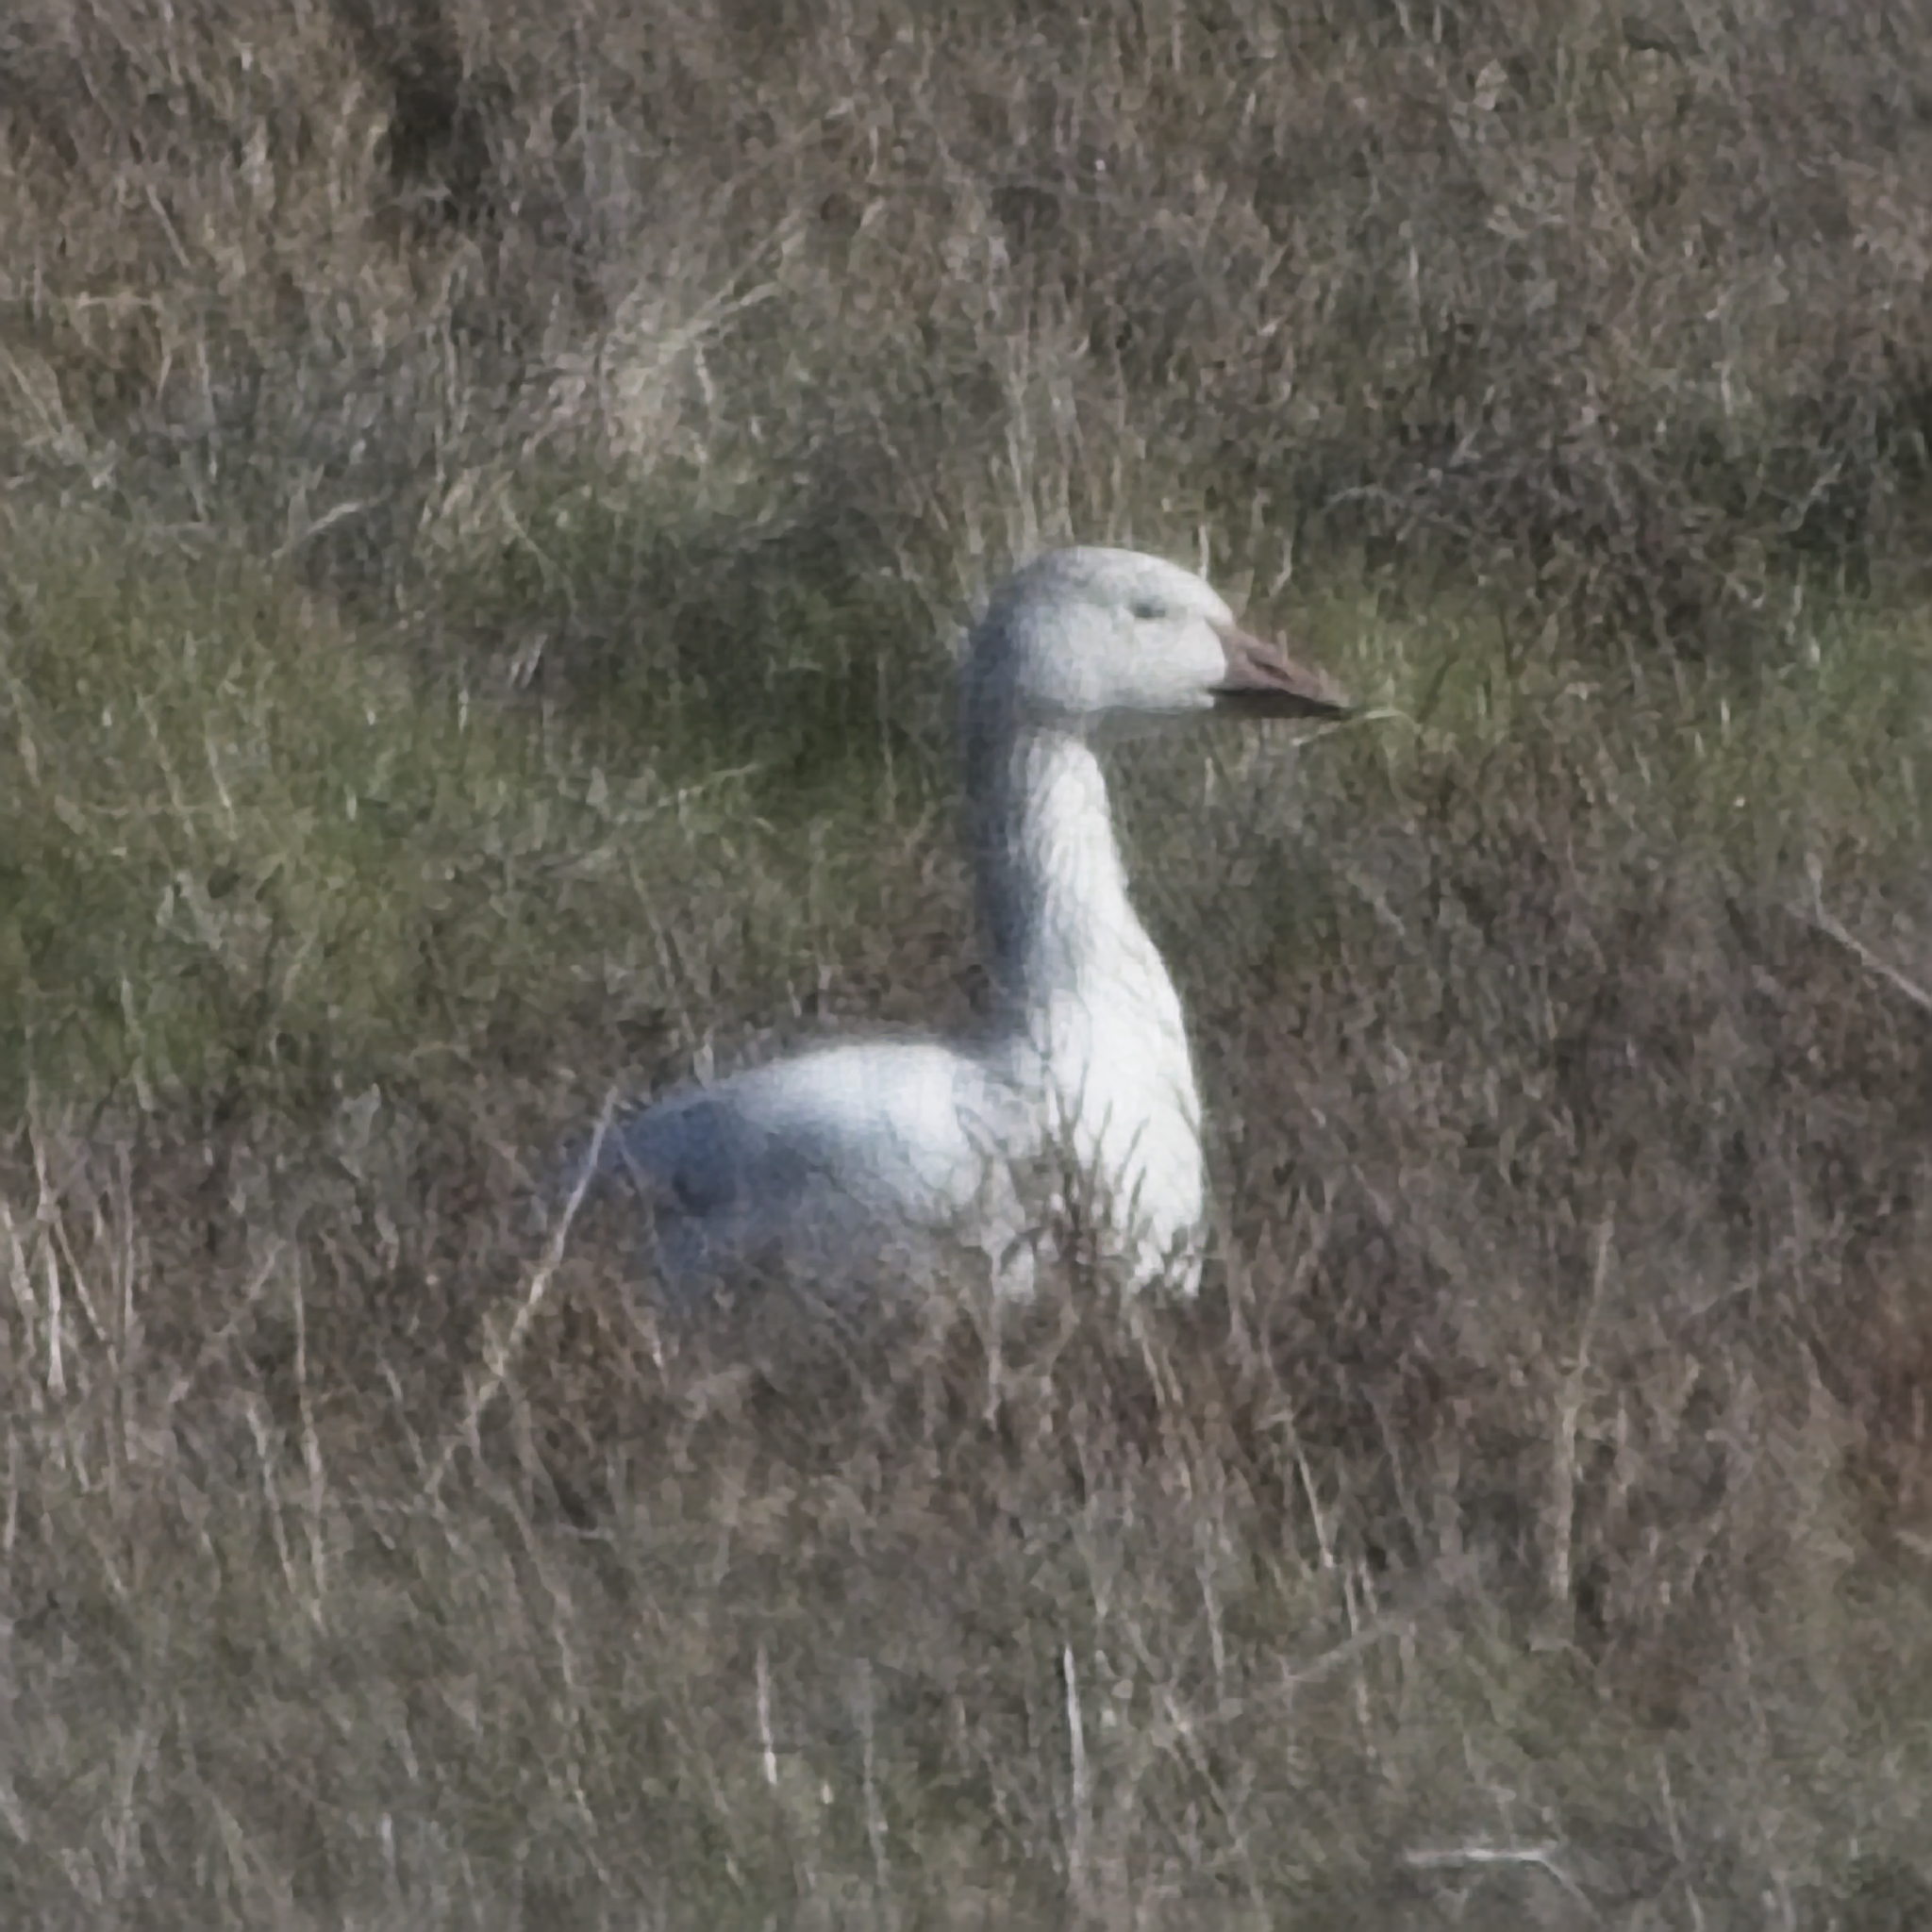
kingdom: Animalia
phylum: Chordata
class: Aves
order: Anseriformes
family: Anatidae
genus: Anser
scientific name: Anser caerulescens
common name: Snow goose
